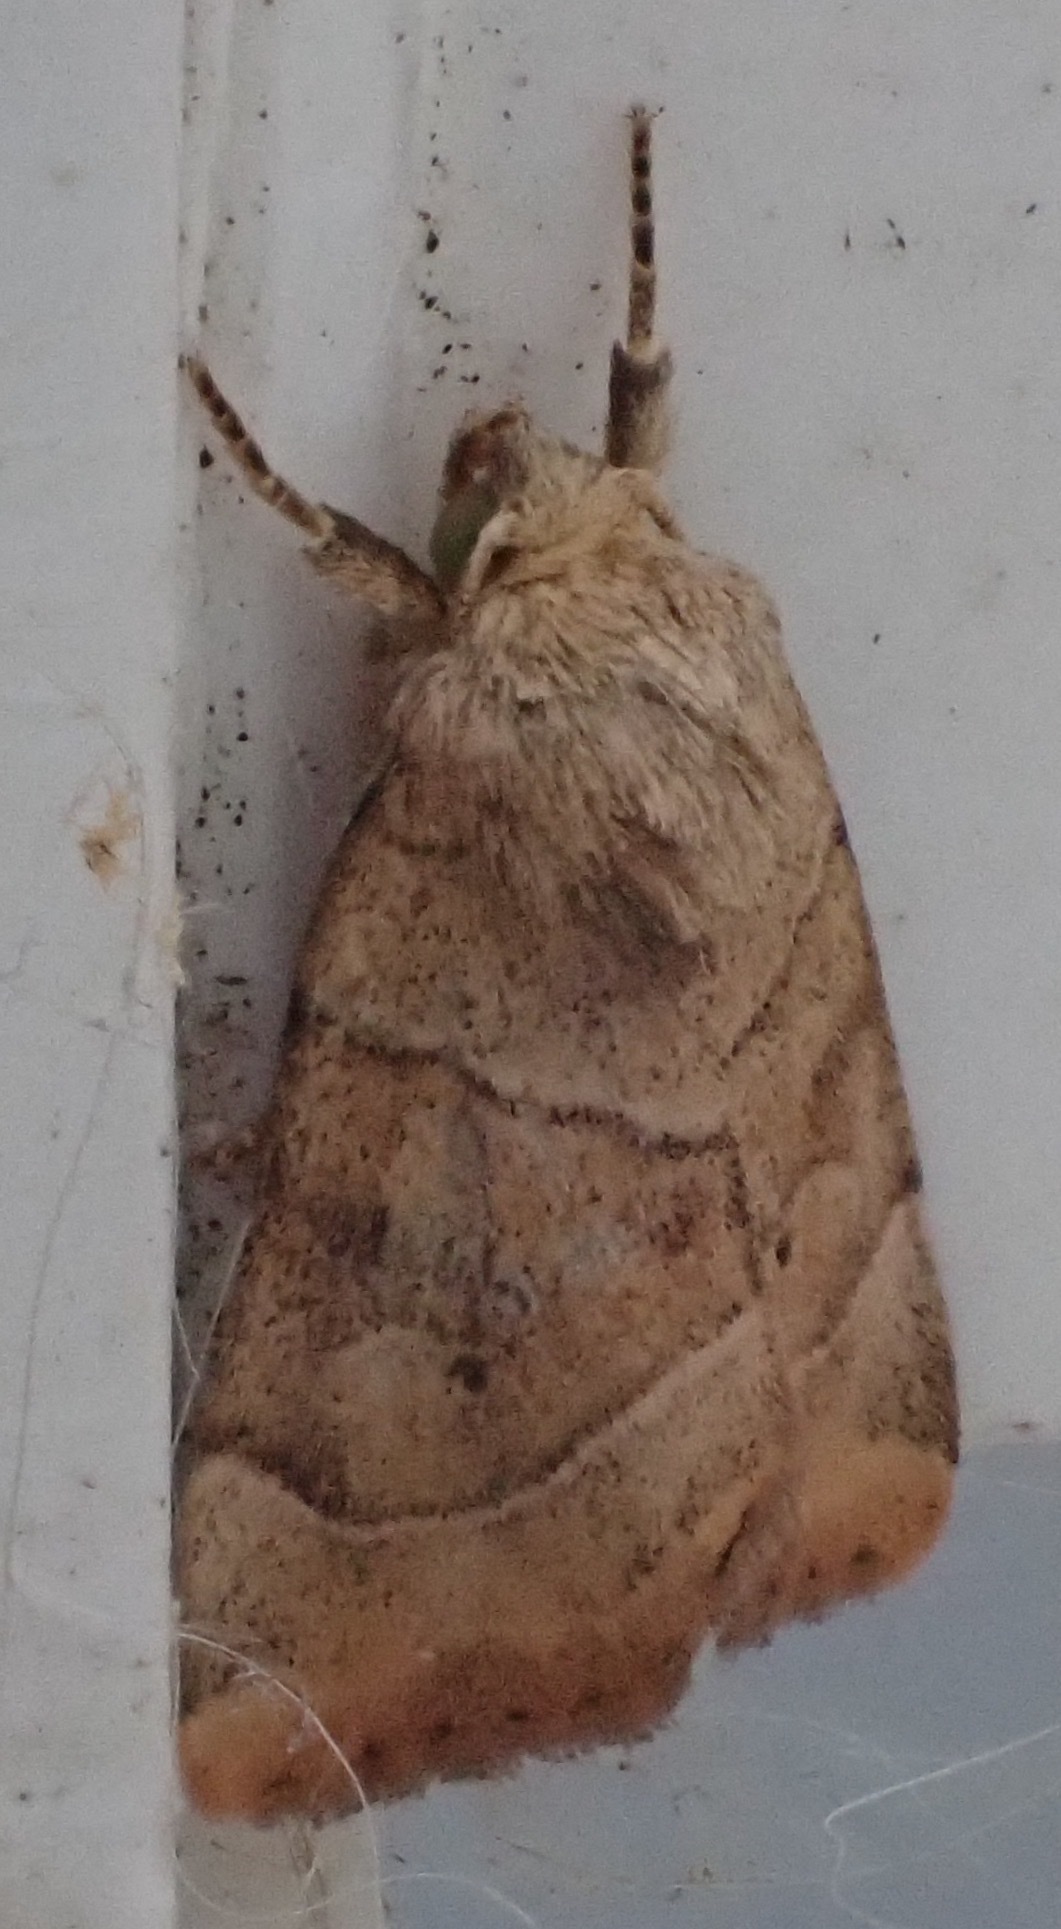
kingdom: Animalia
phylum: Arthropoda
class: Insecta
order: Lepidoptera
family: Noctuidae
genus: Cosmia
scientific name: Cosmia trapezina
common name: Dun-bar
